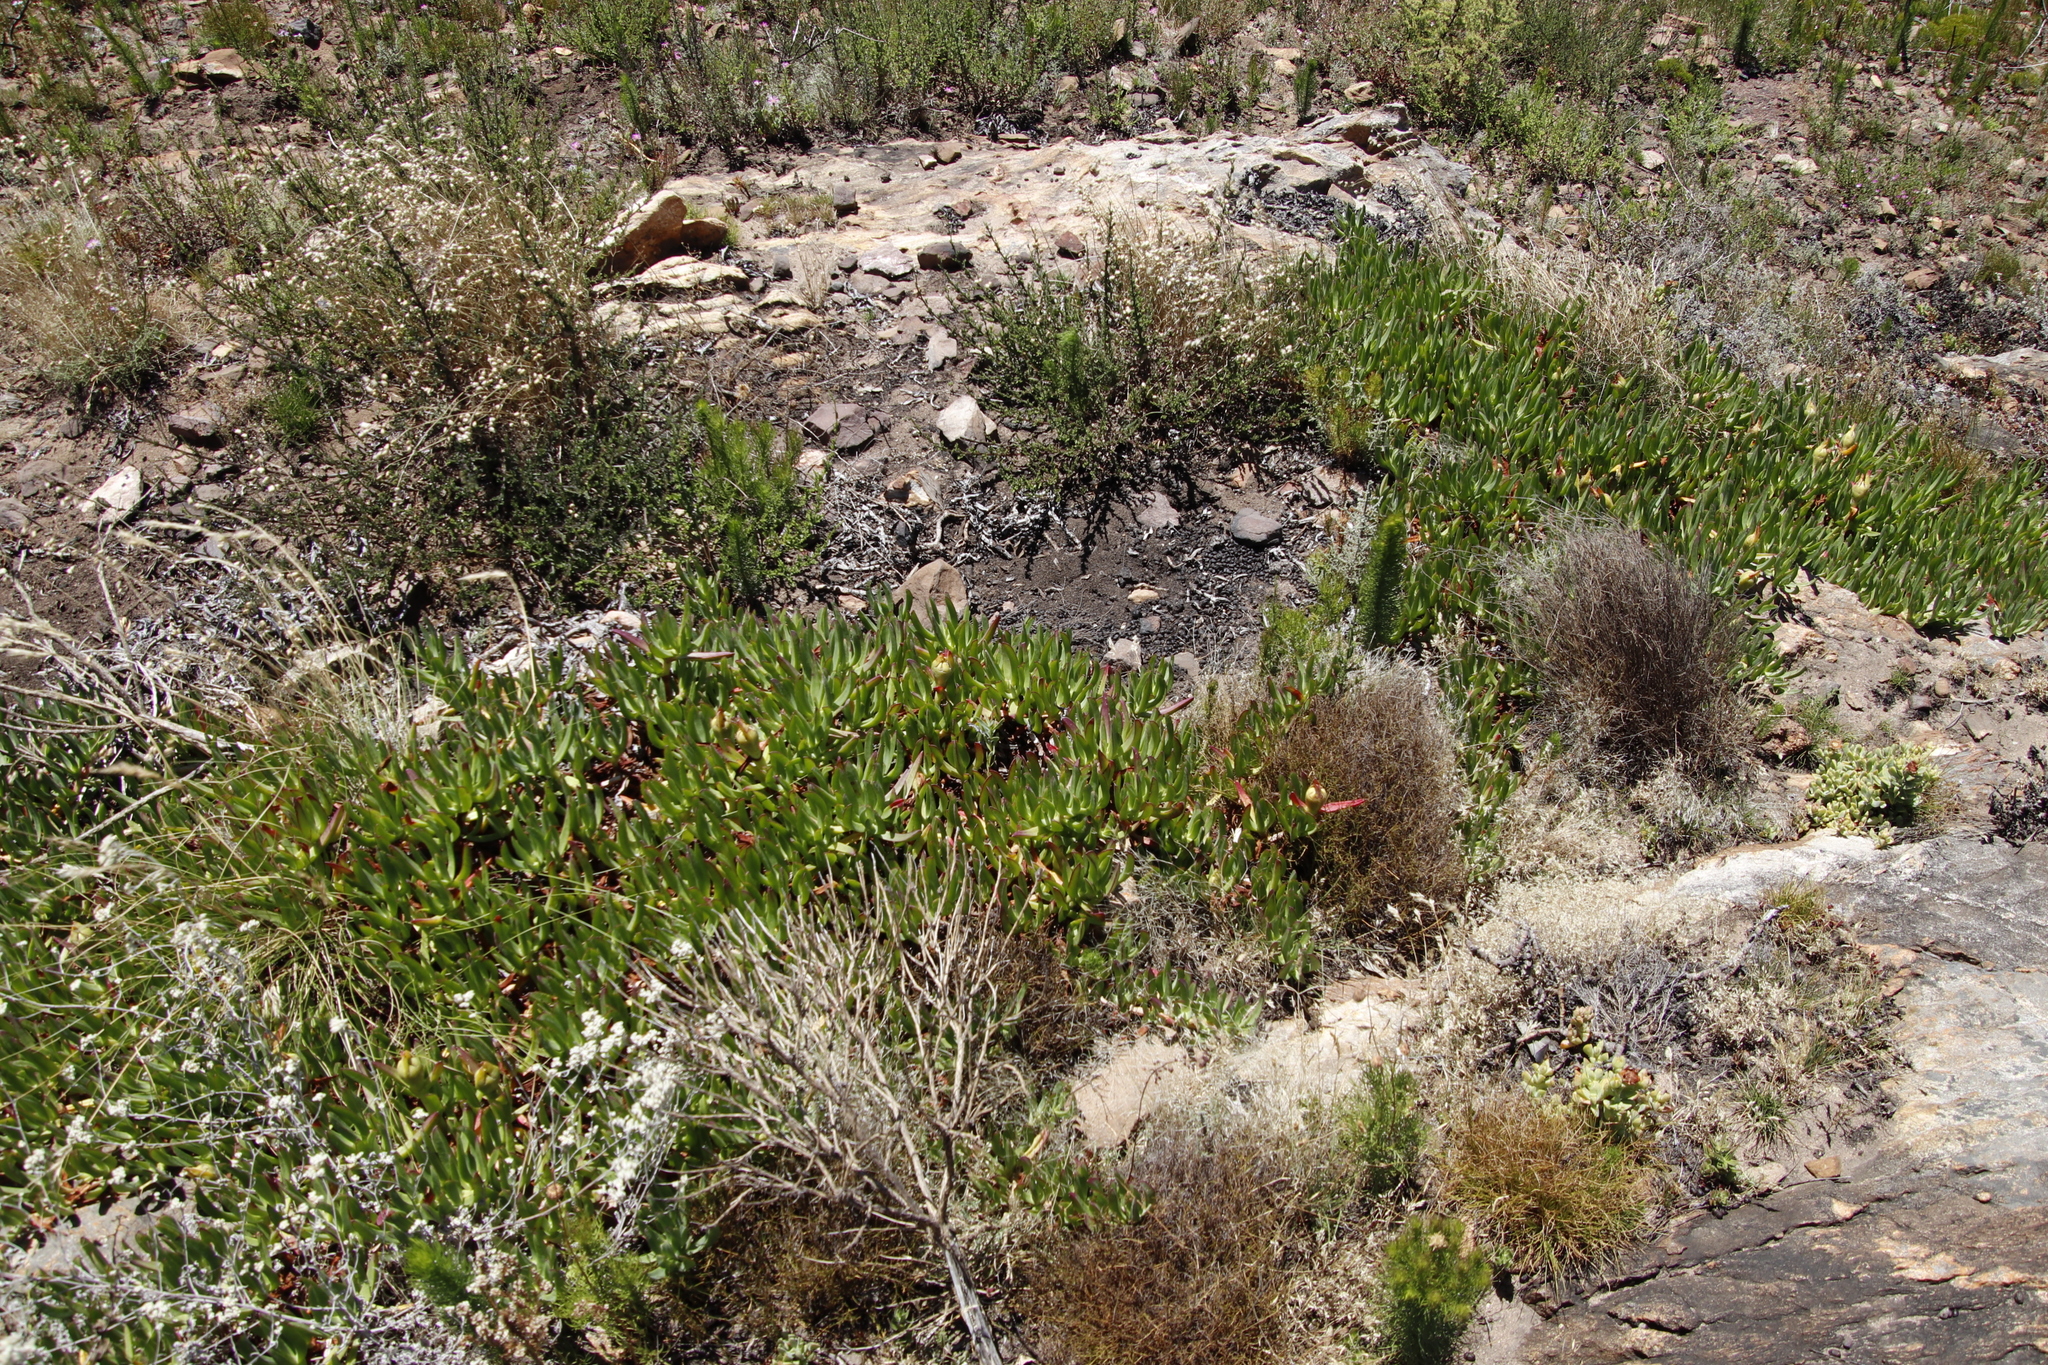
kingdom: Plantae
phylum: Tracheophyta
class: Magnoliopsida
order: Caryophyllales
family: Aizoaceae
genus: Carpobrotus
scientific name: Carpobrotus edulis
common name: Hottentot-fig
